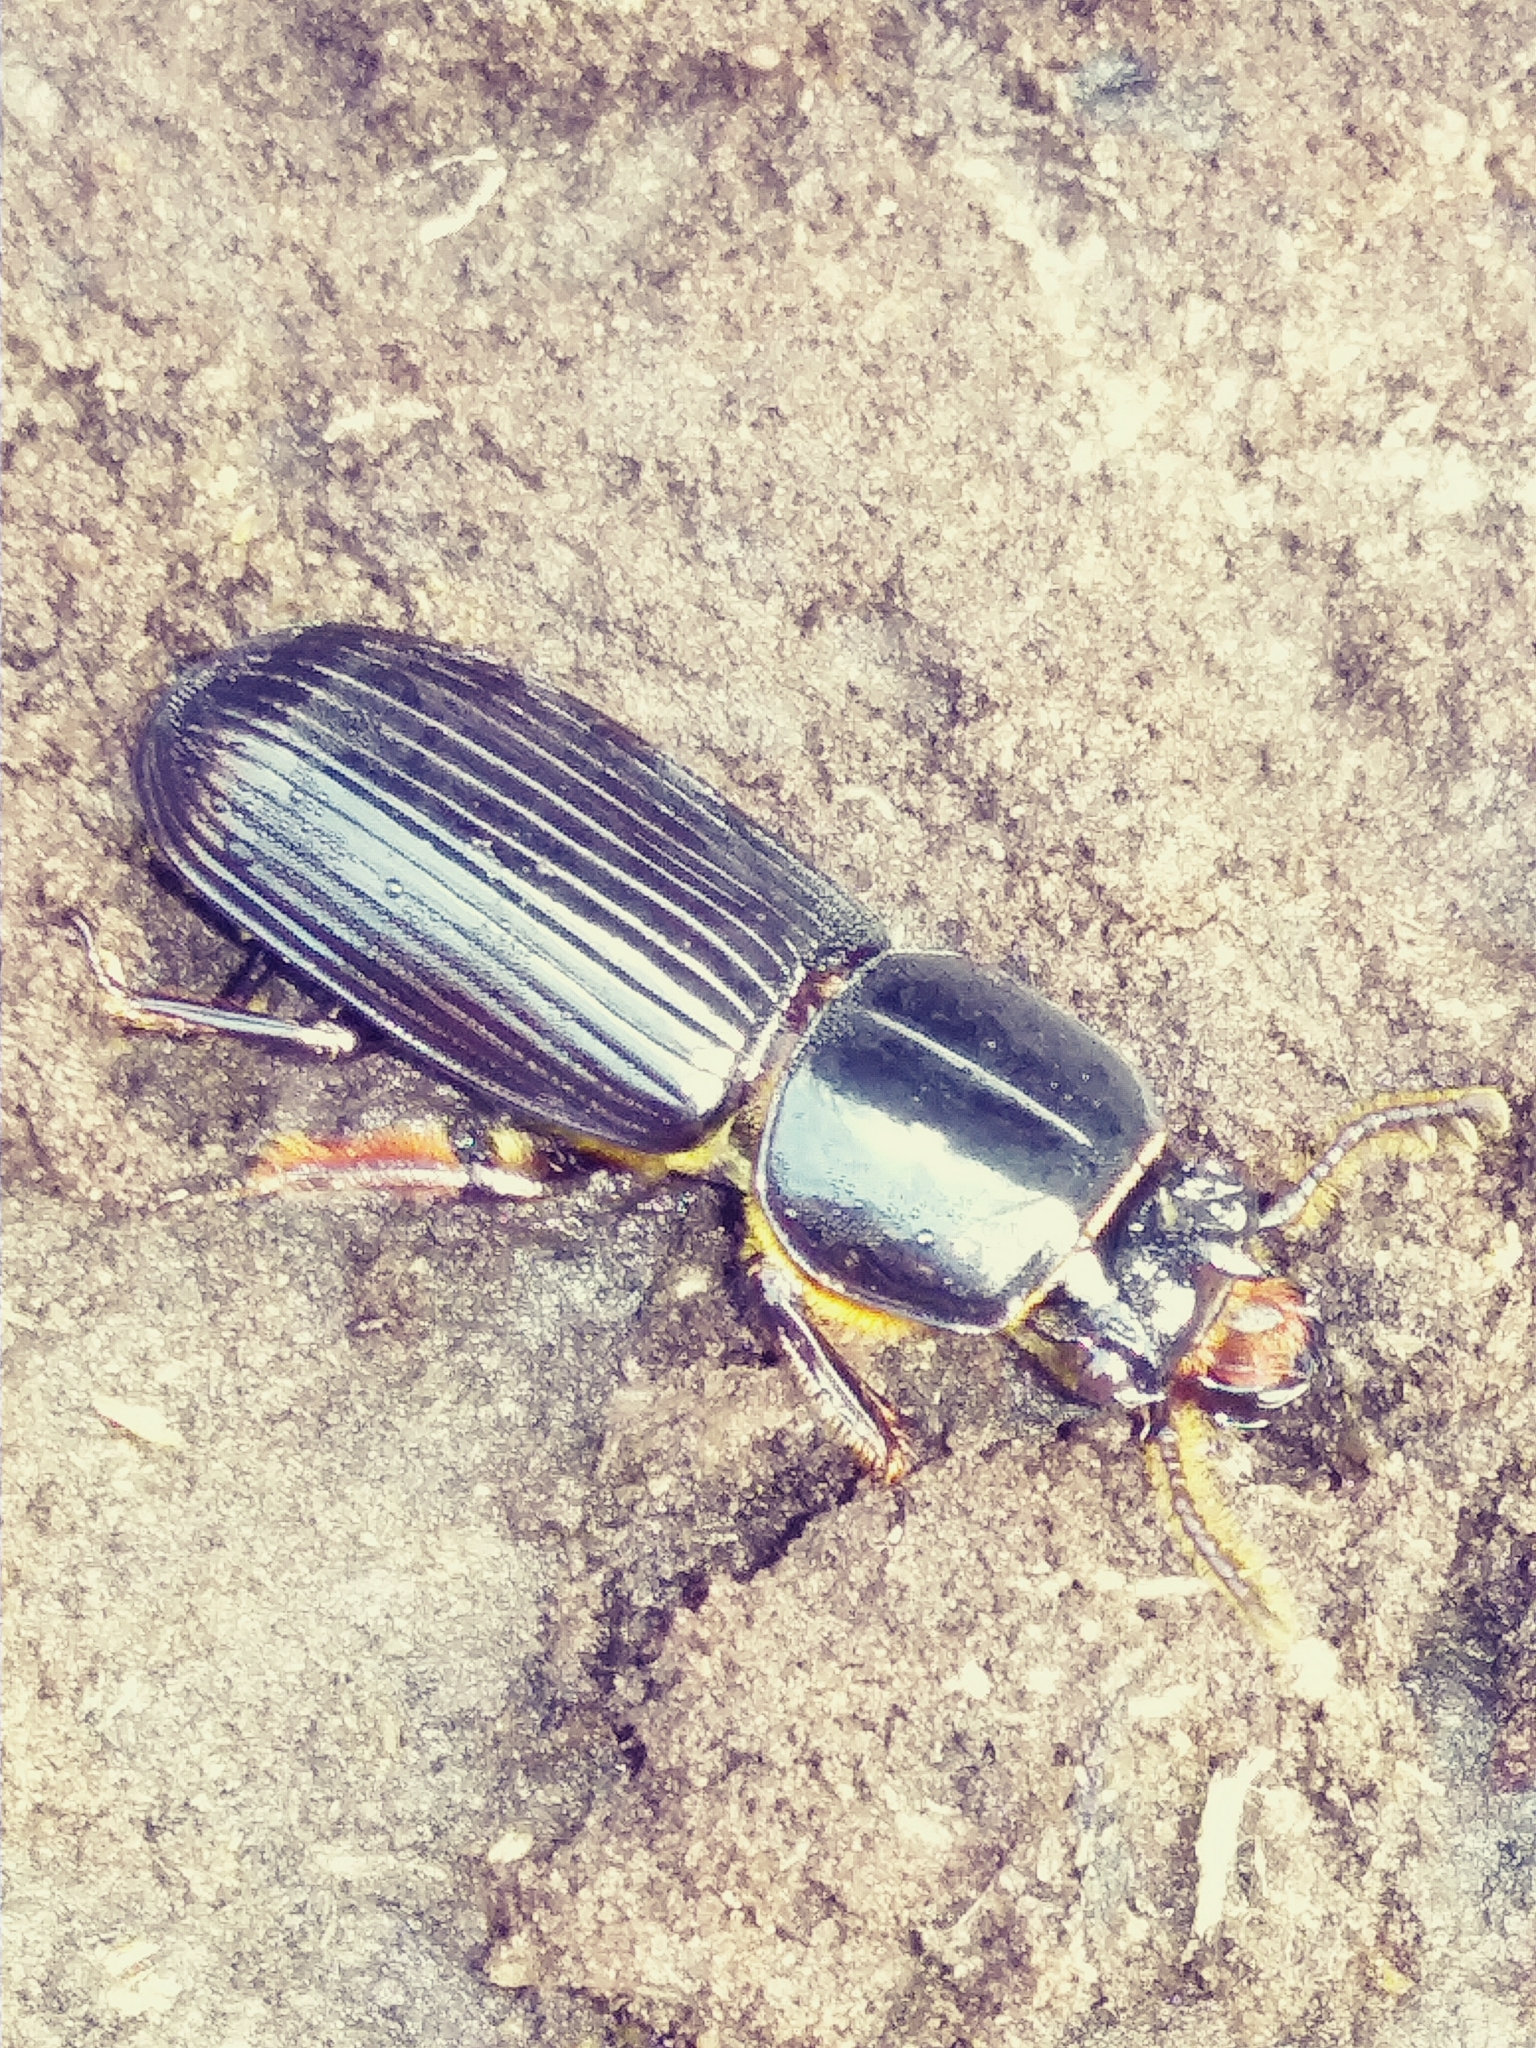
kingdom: Animalia
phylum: Arthropoda
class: Insecta
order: Coleoptera
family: Passalidae
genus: Odontotaenius
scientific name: Odontotaenius disjunctus
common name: Patent leather beetle
